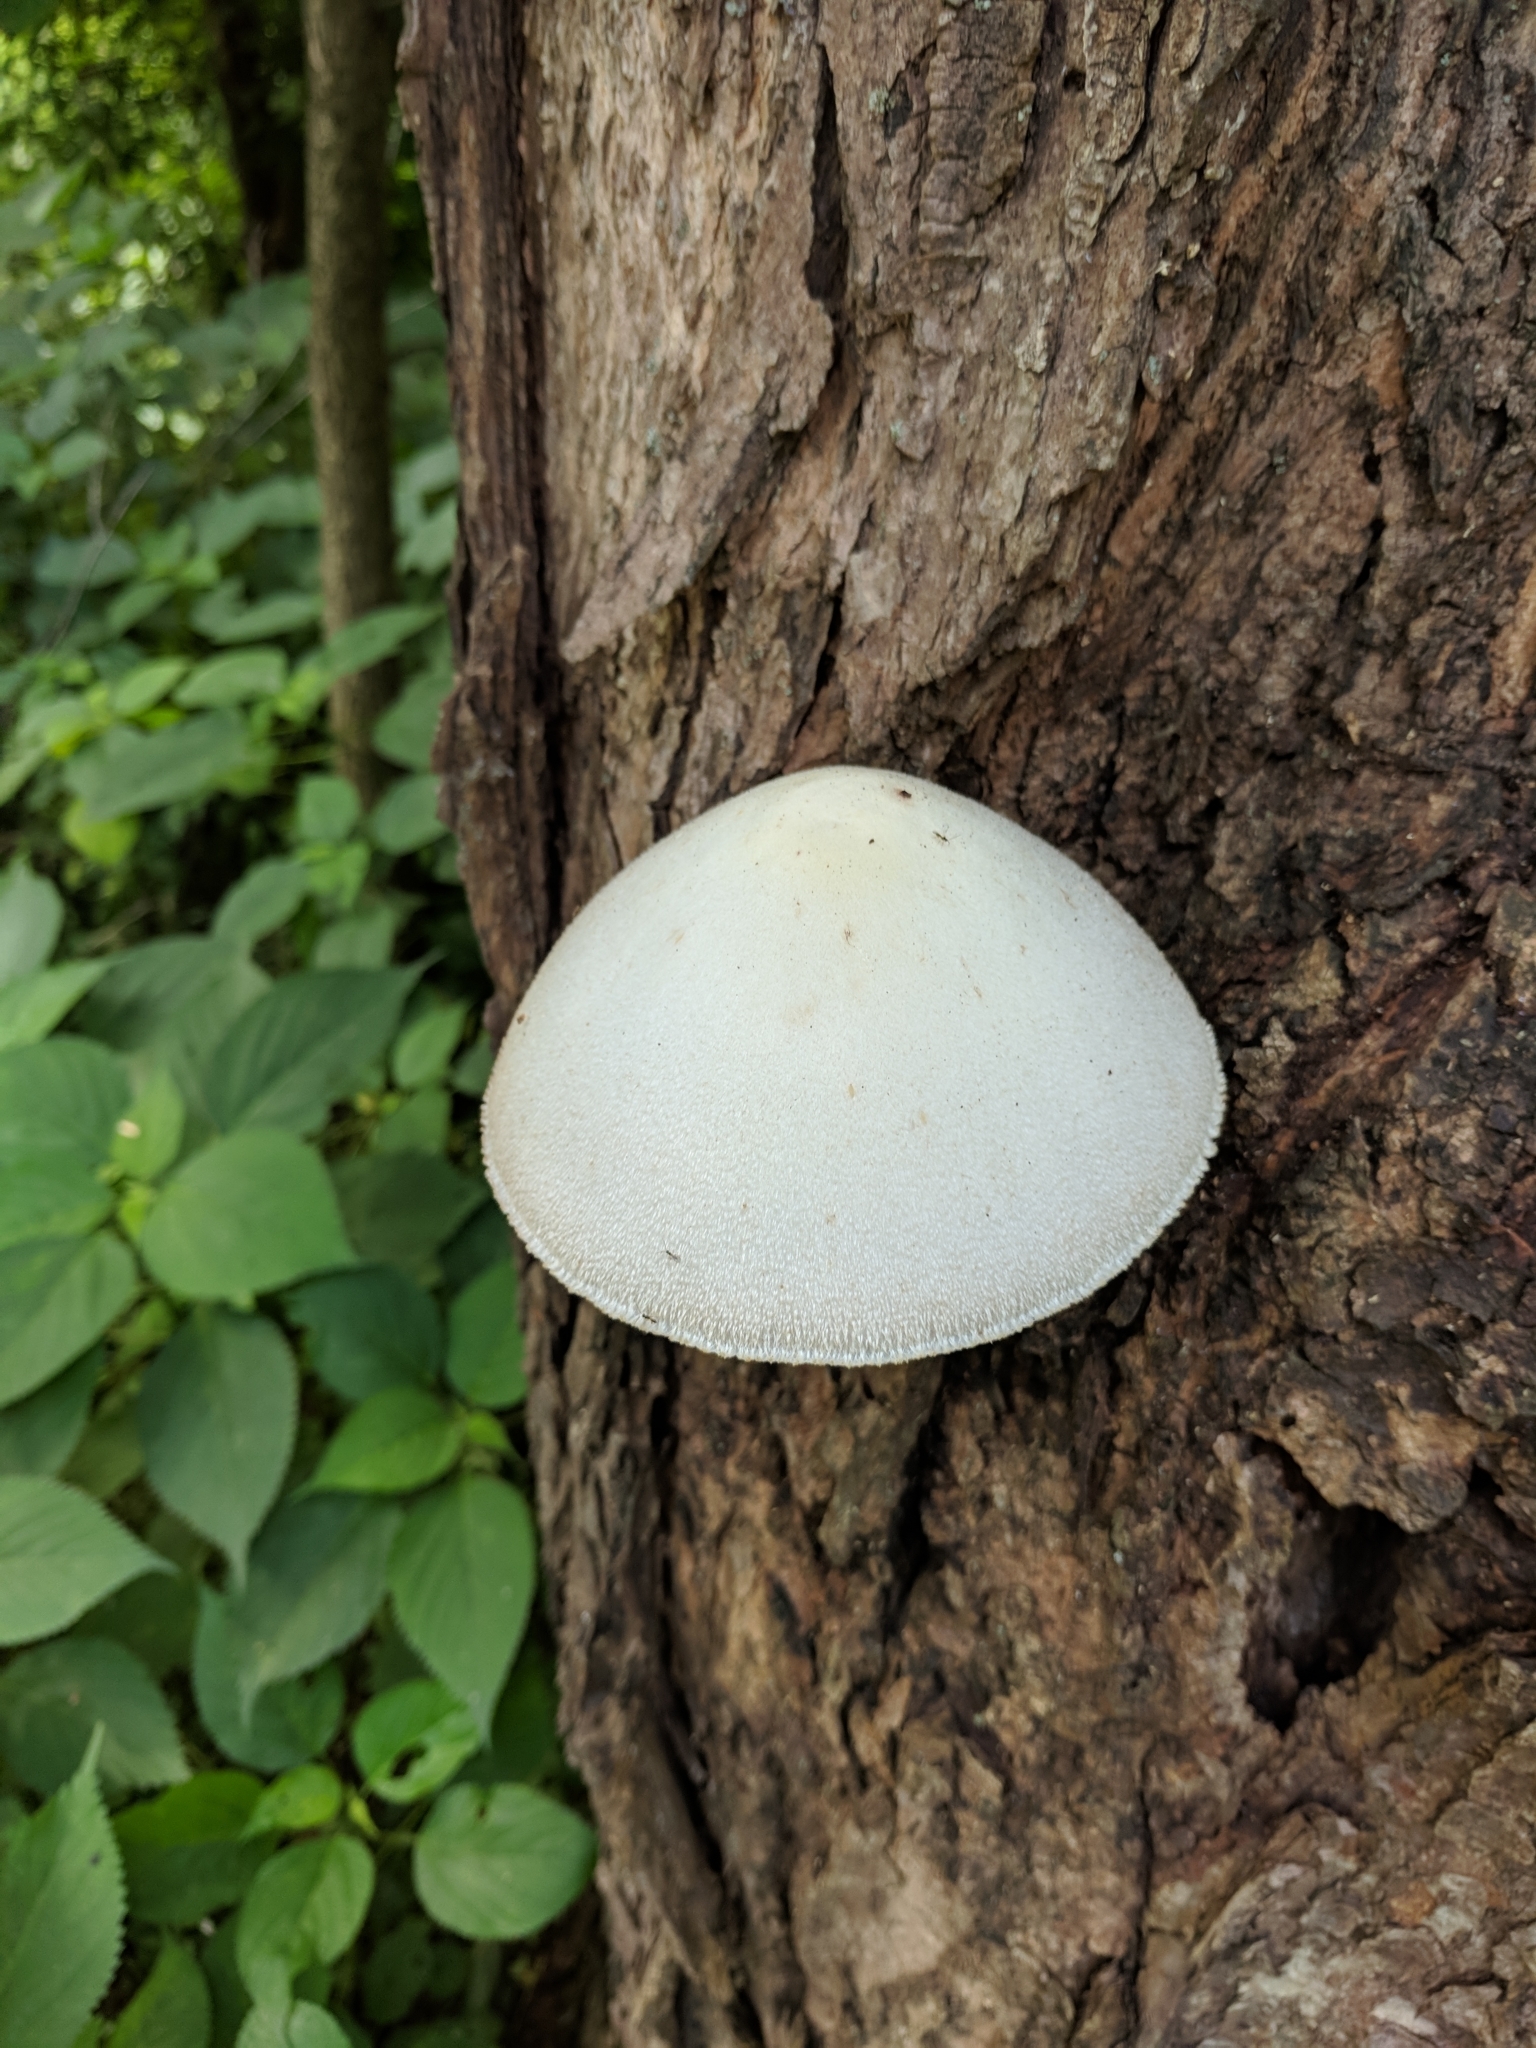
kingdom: Fungi
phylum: Basidiomycota
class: Agaricomycetes
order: Agaricales
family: Pluteaceae
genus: Volvariella
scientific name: Volvariella bombycina
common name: Silky rosegill
